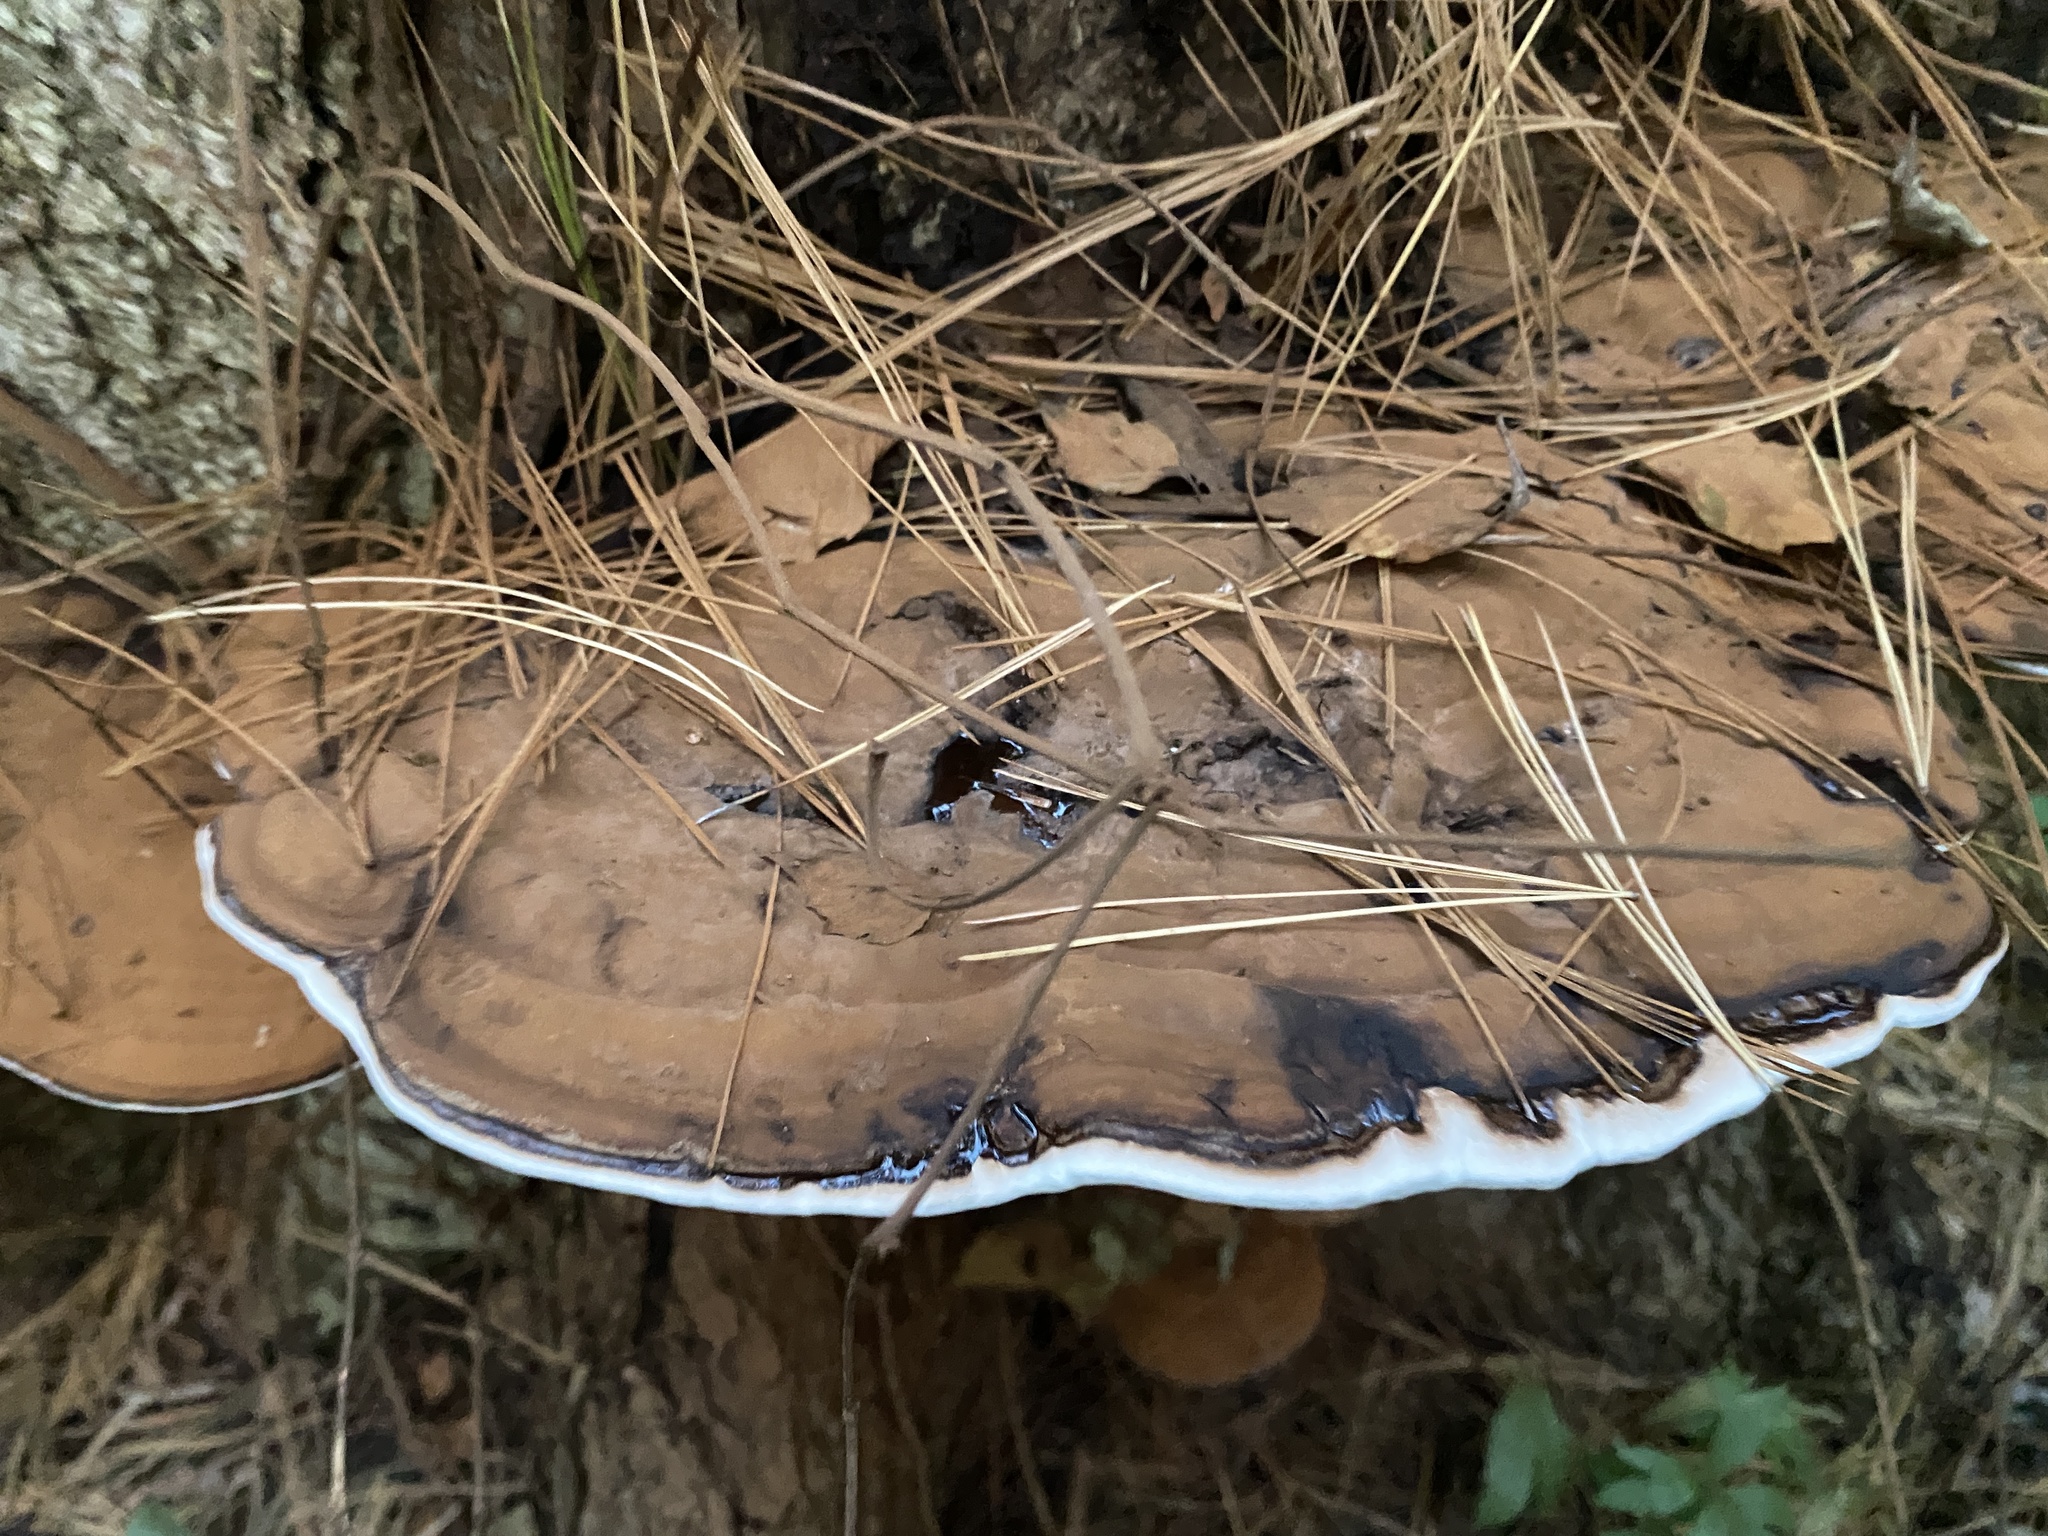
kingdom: Fungi
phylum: Basidiomycota
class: Agaricomycetes
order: Polyporales
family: Polyporaceae
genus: Ganoderma
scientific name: Ganoderma applanatum
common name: Artist's bracket
